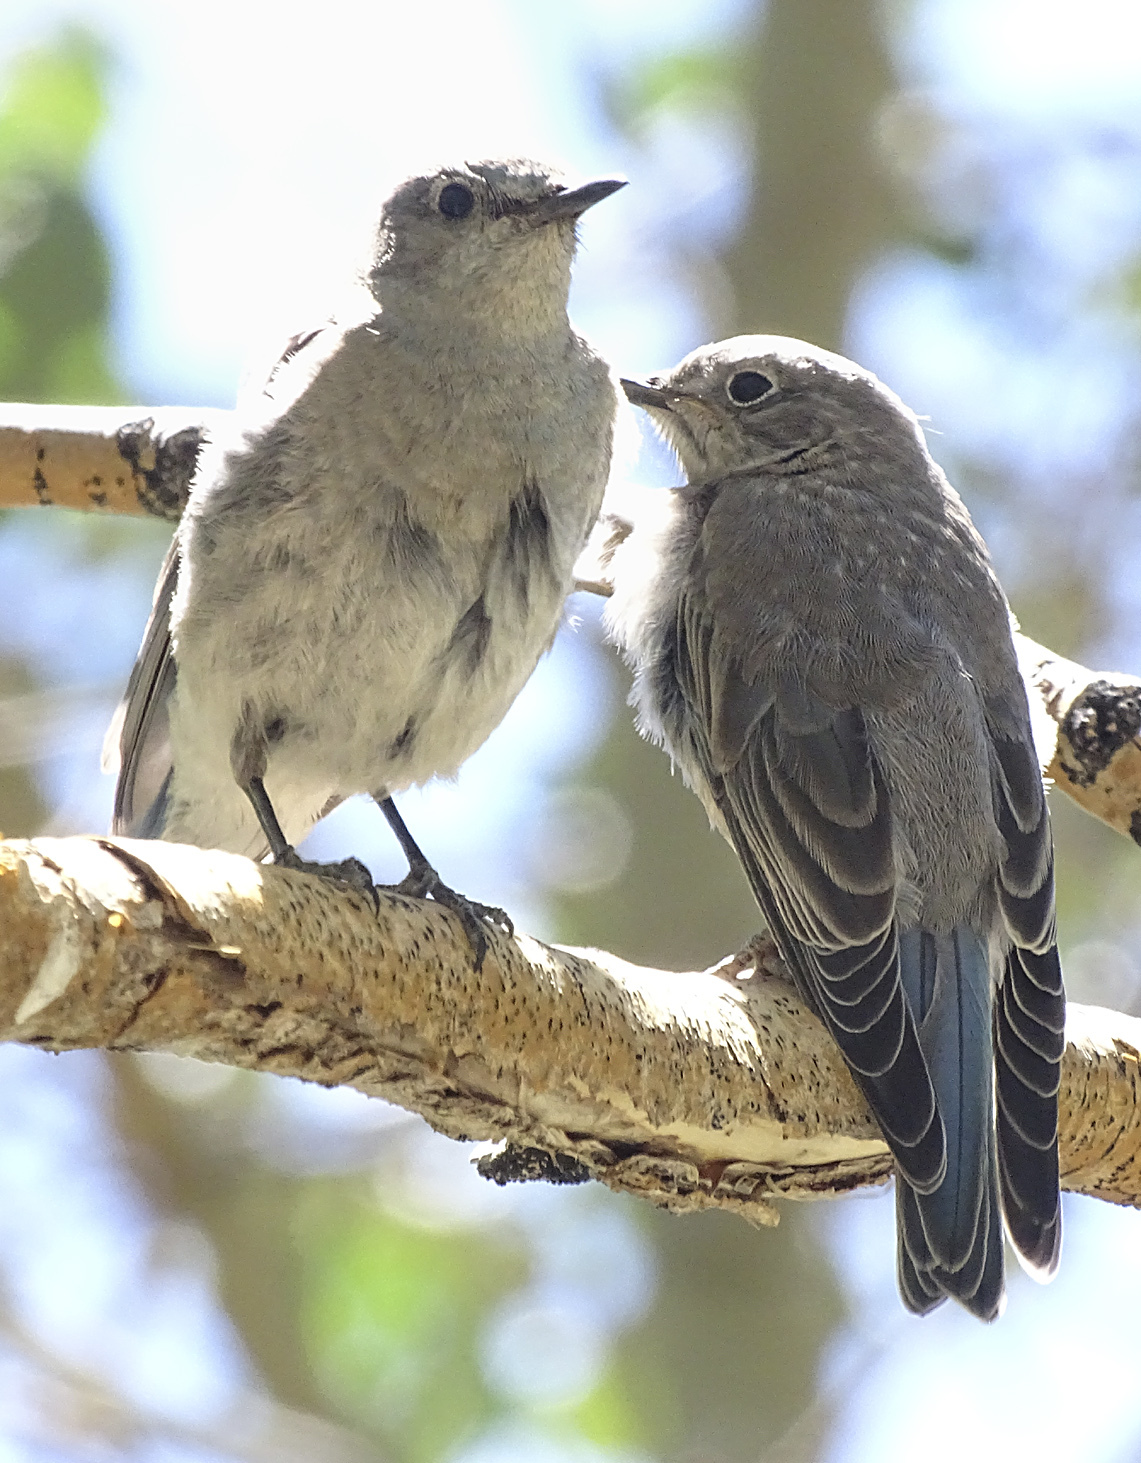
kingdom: Animalia
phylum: Chordata
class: Aves
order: Passeriformes
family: Turdidae
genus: Sialia
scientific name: Sialia currucoides
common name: Mountain bluebird
